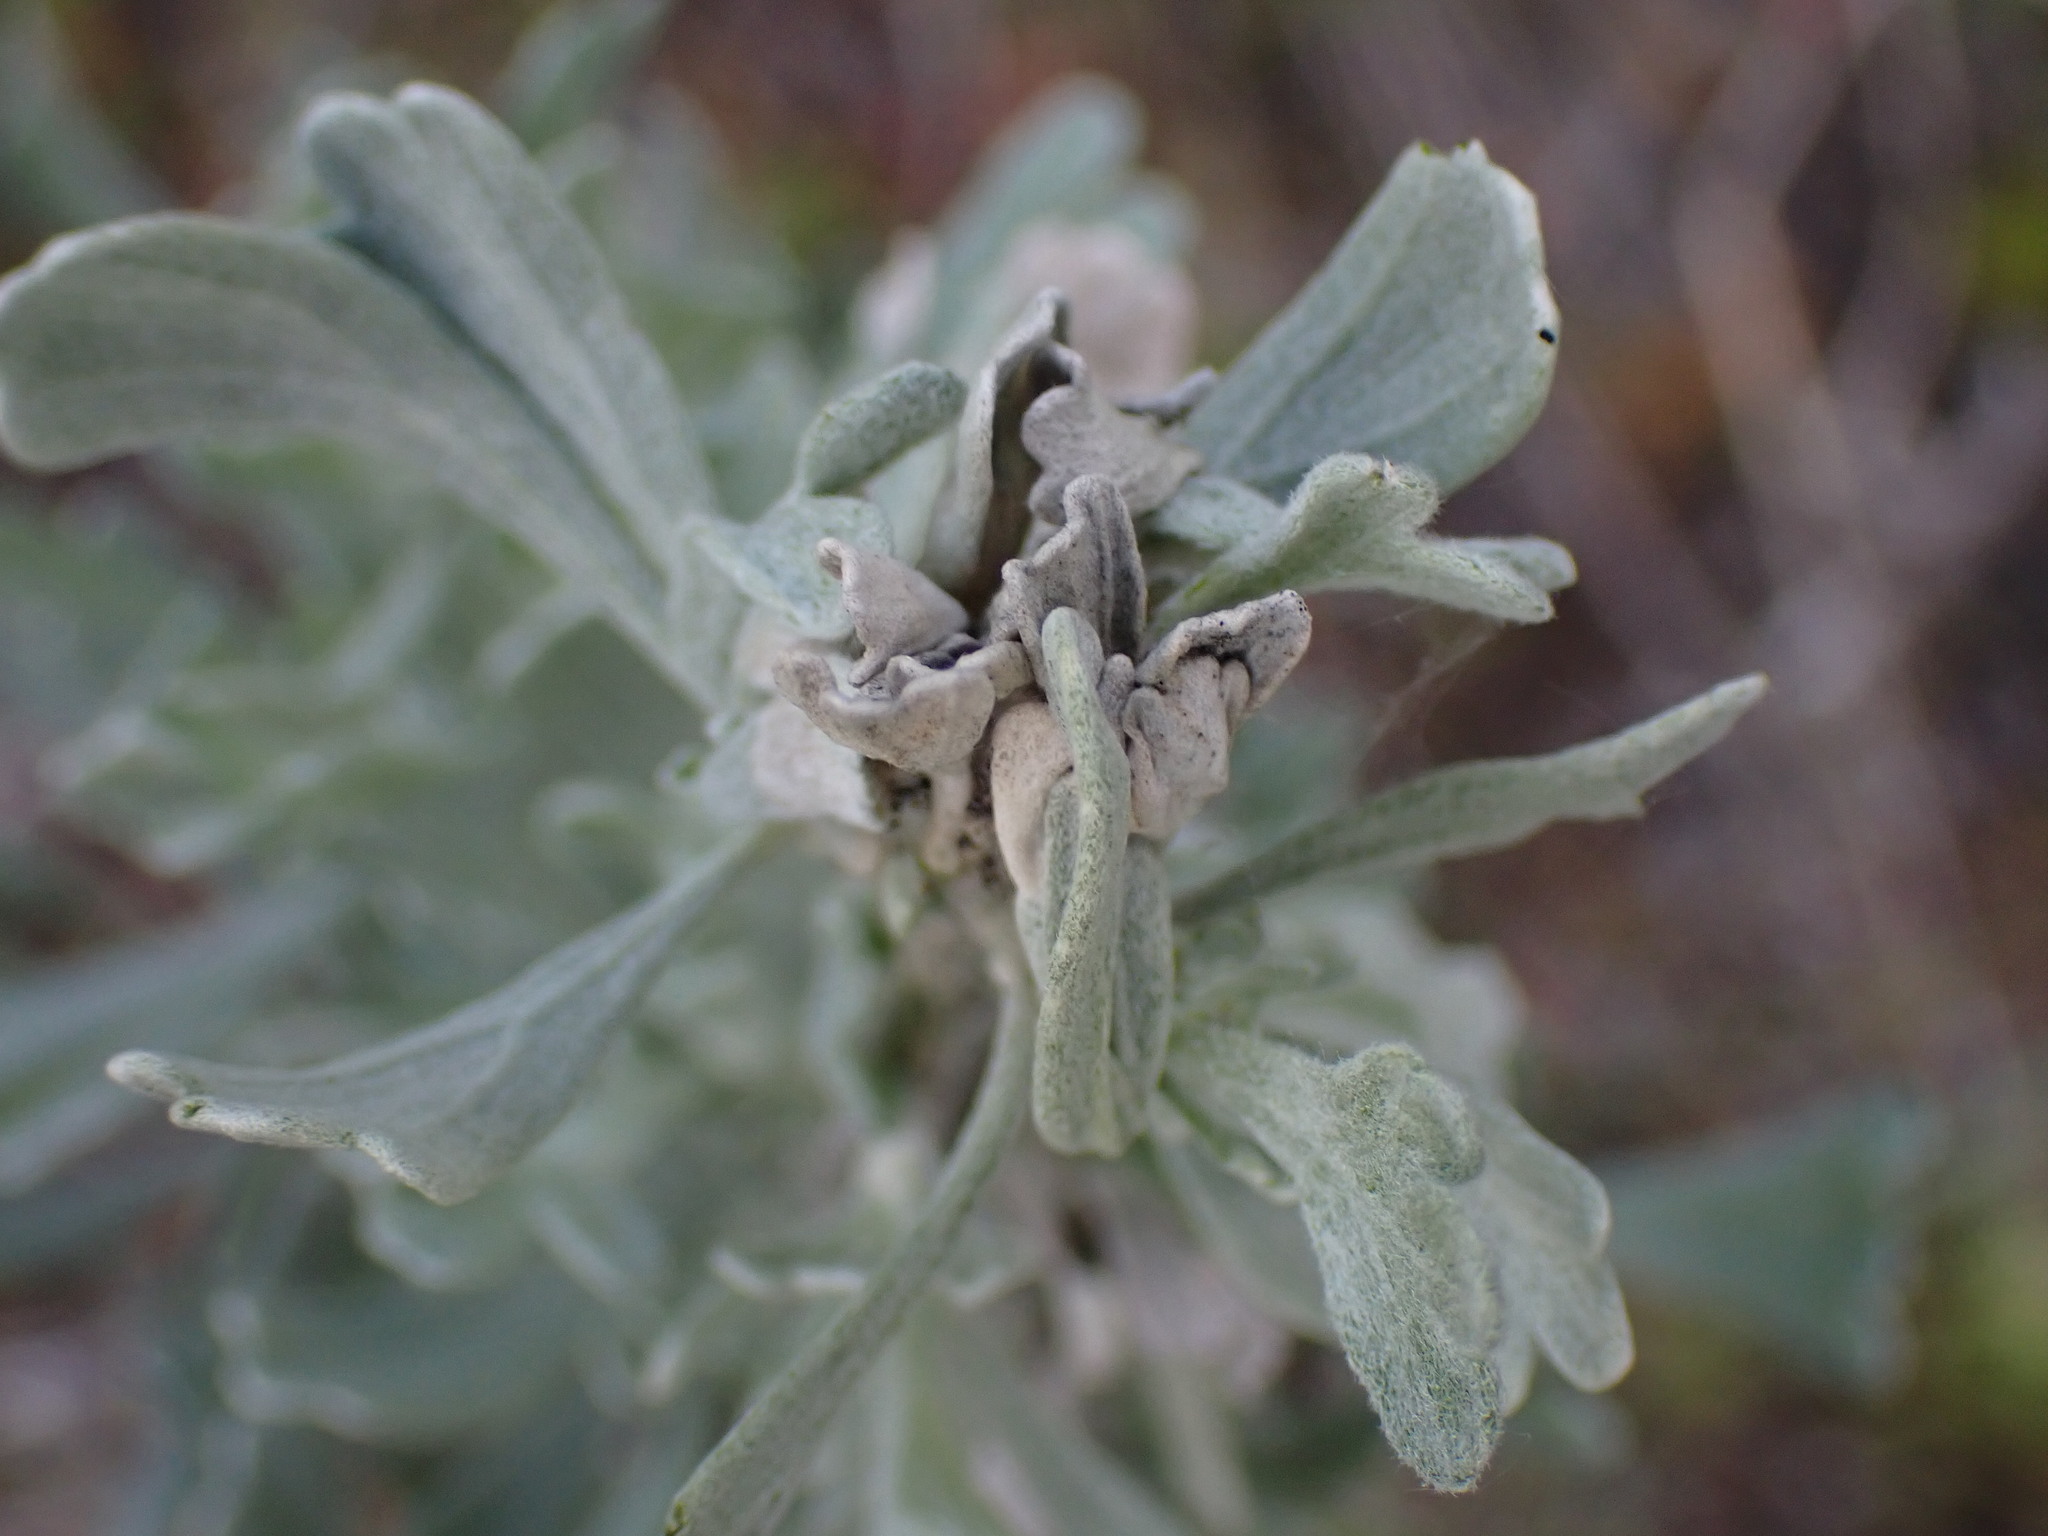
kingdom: Plantae
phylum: Tracheophyta
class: Magnoliopsida
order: Asterales
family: Asteraceae
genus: Artemisia
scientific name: Artemisia tridentata
